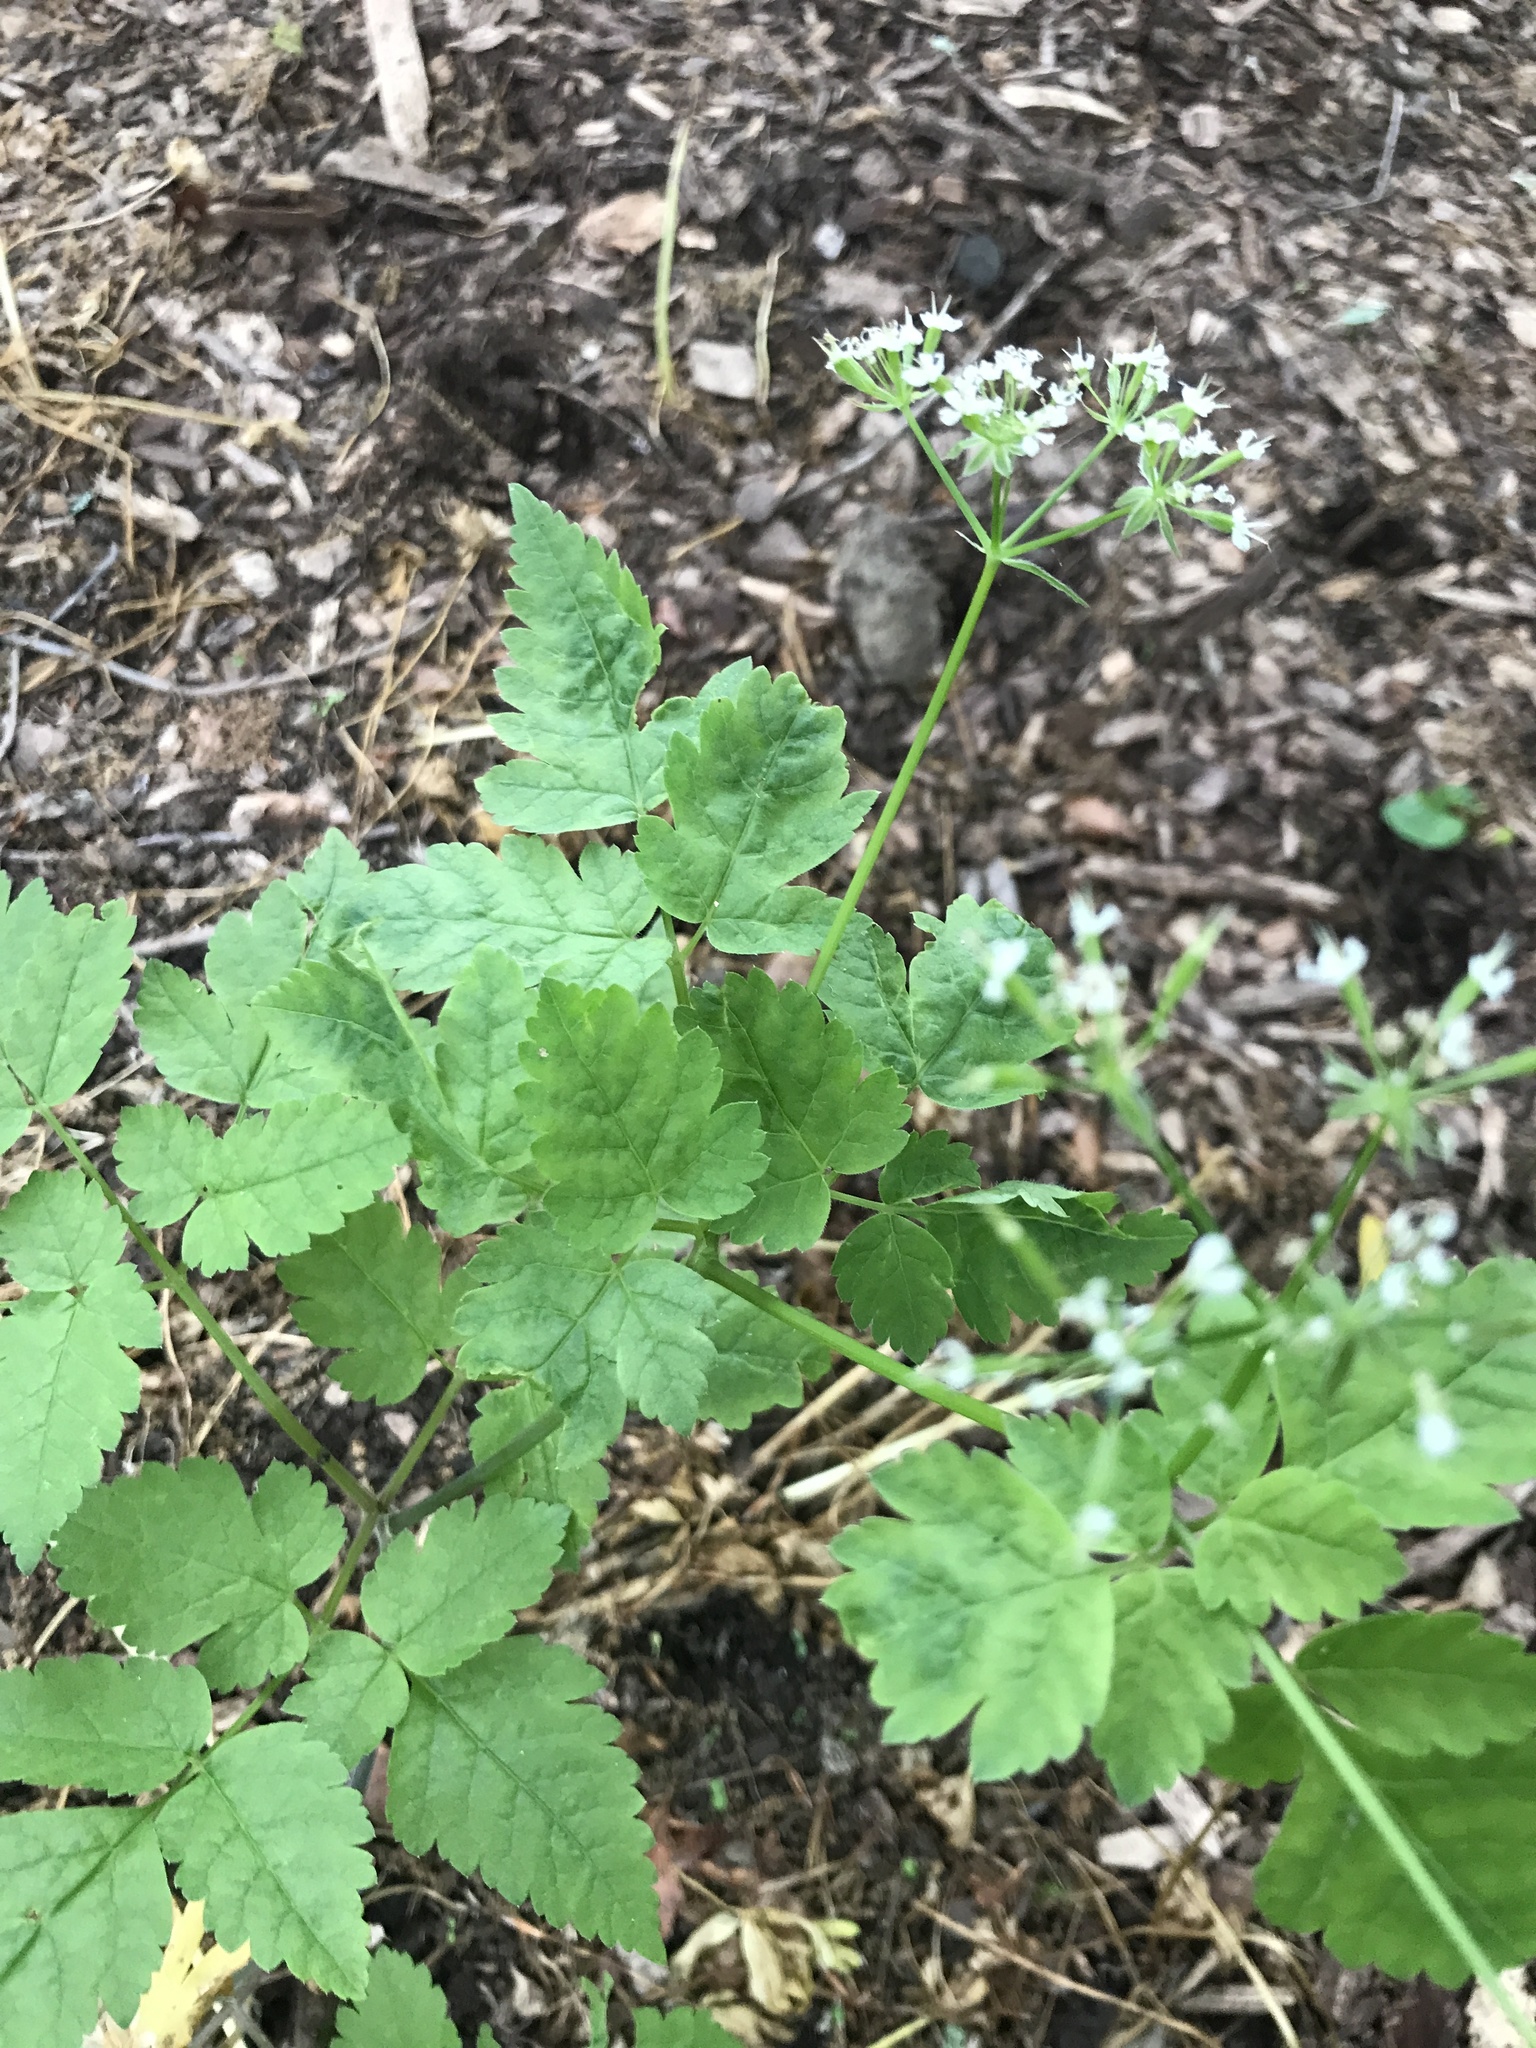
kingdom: Plantae
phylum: Tracheophyta
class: Magnoliopsida
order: Apiales
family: Apiaceae
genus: Osmorhiza
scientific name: Osmorhiza longistylis
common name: Smooth sweet cicely
